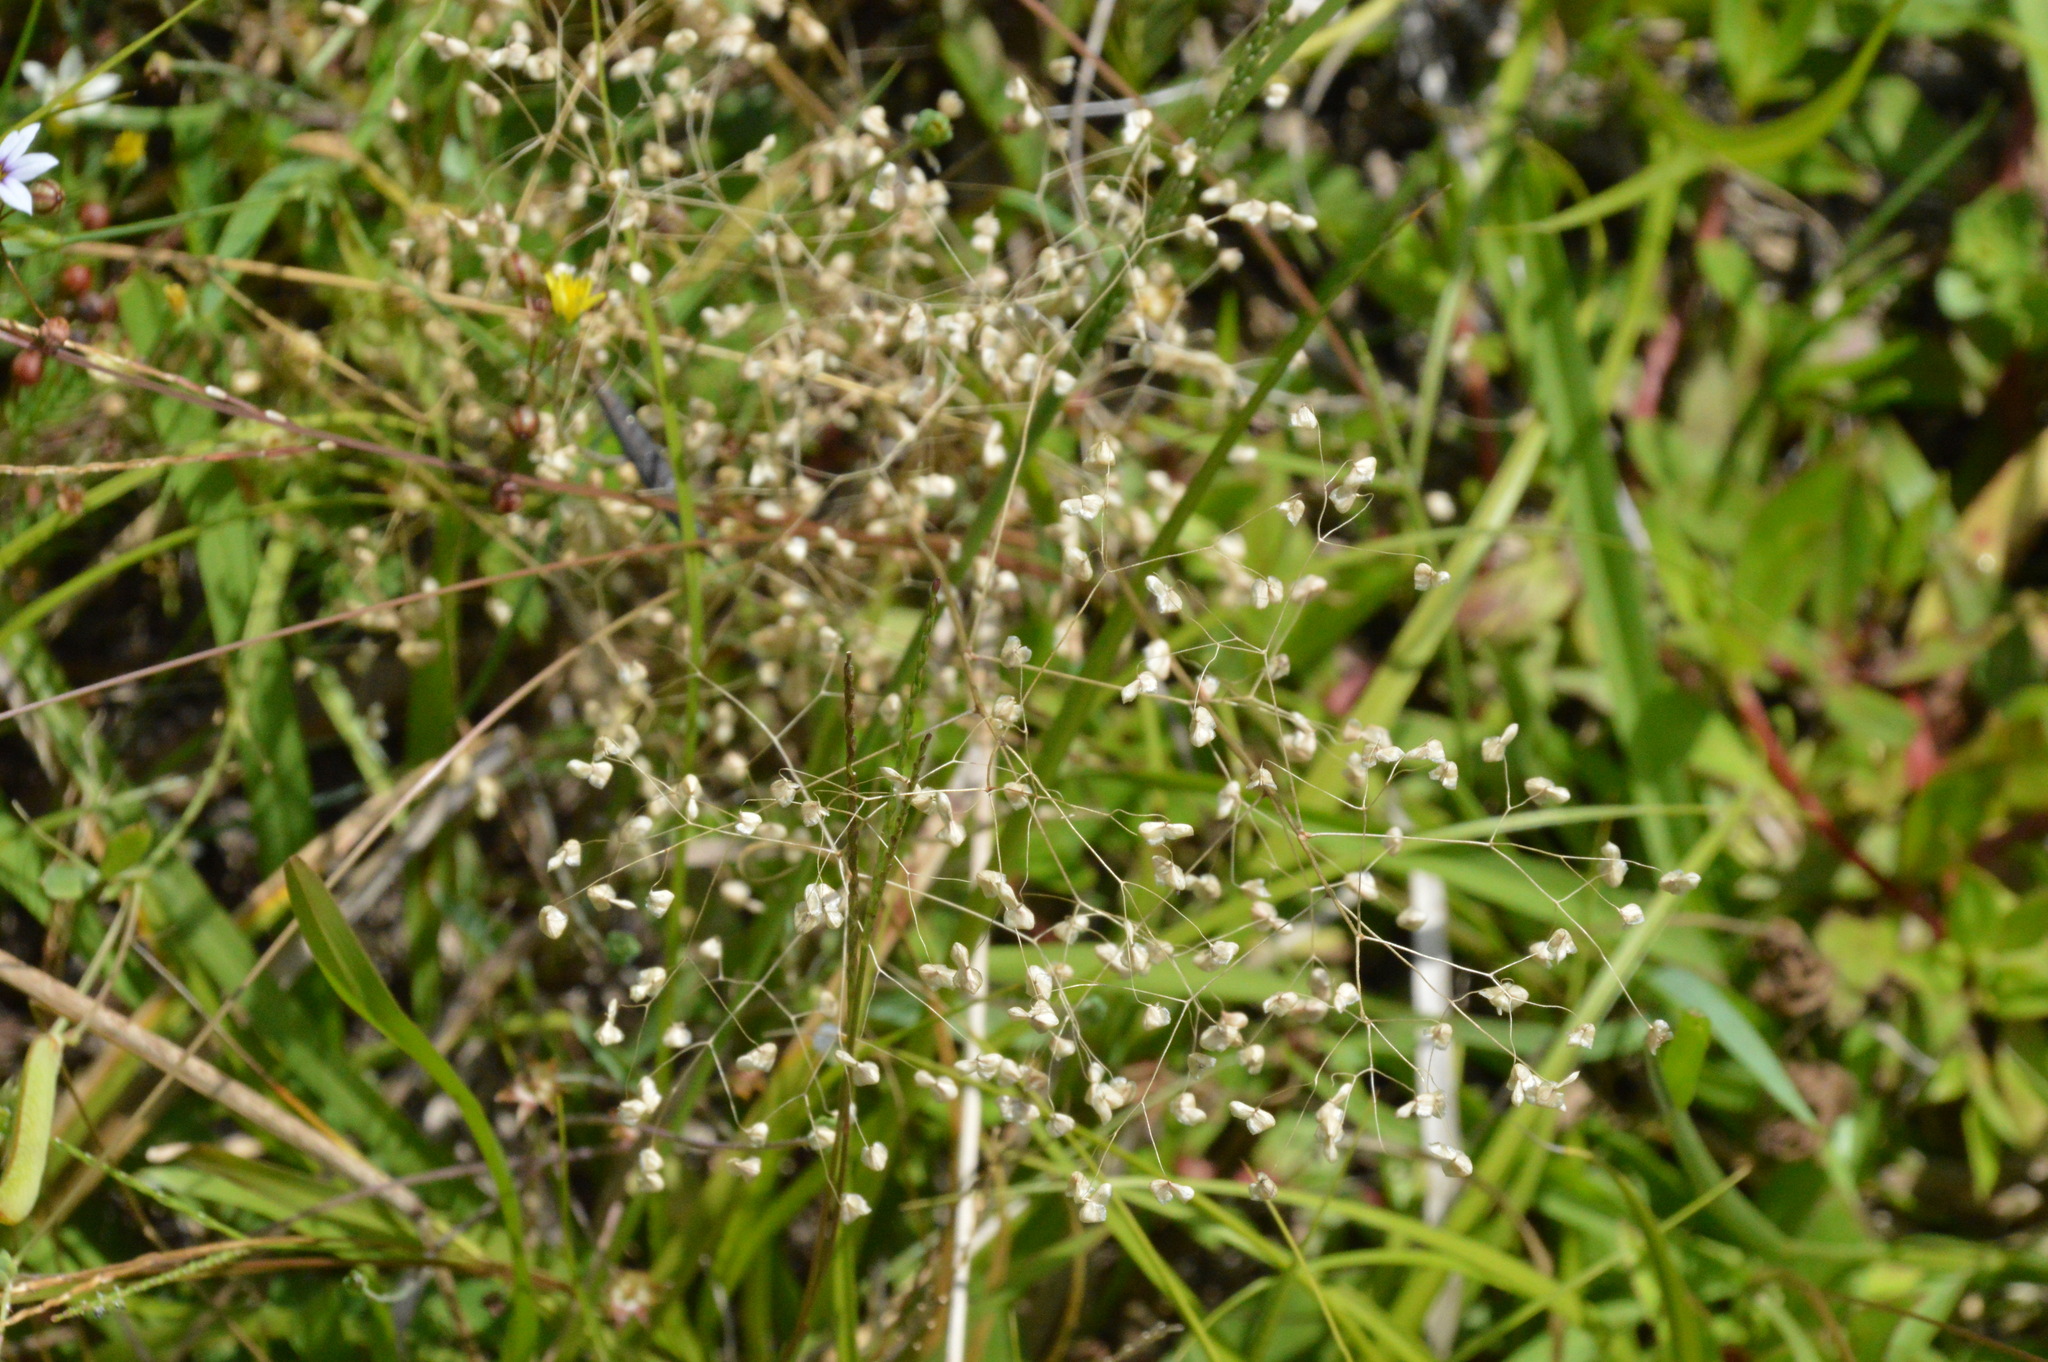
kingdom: Plantae
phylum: Tracheophyta
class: Liliopsida
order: Poales
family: Poaceae
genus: Briza
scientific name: Briza minor
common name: Lesser quaking-grass
